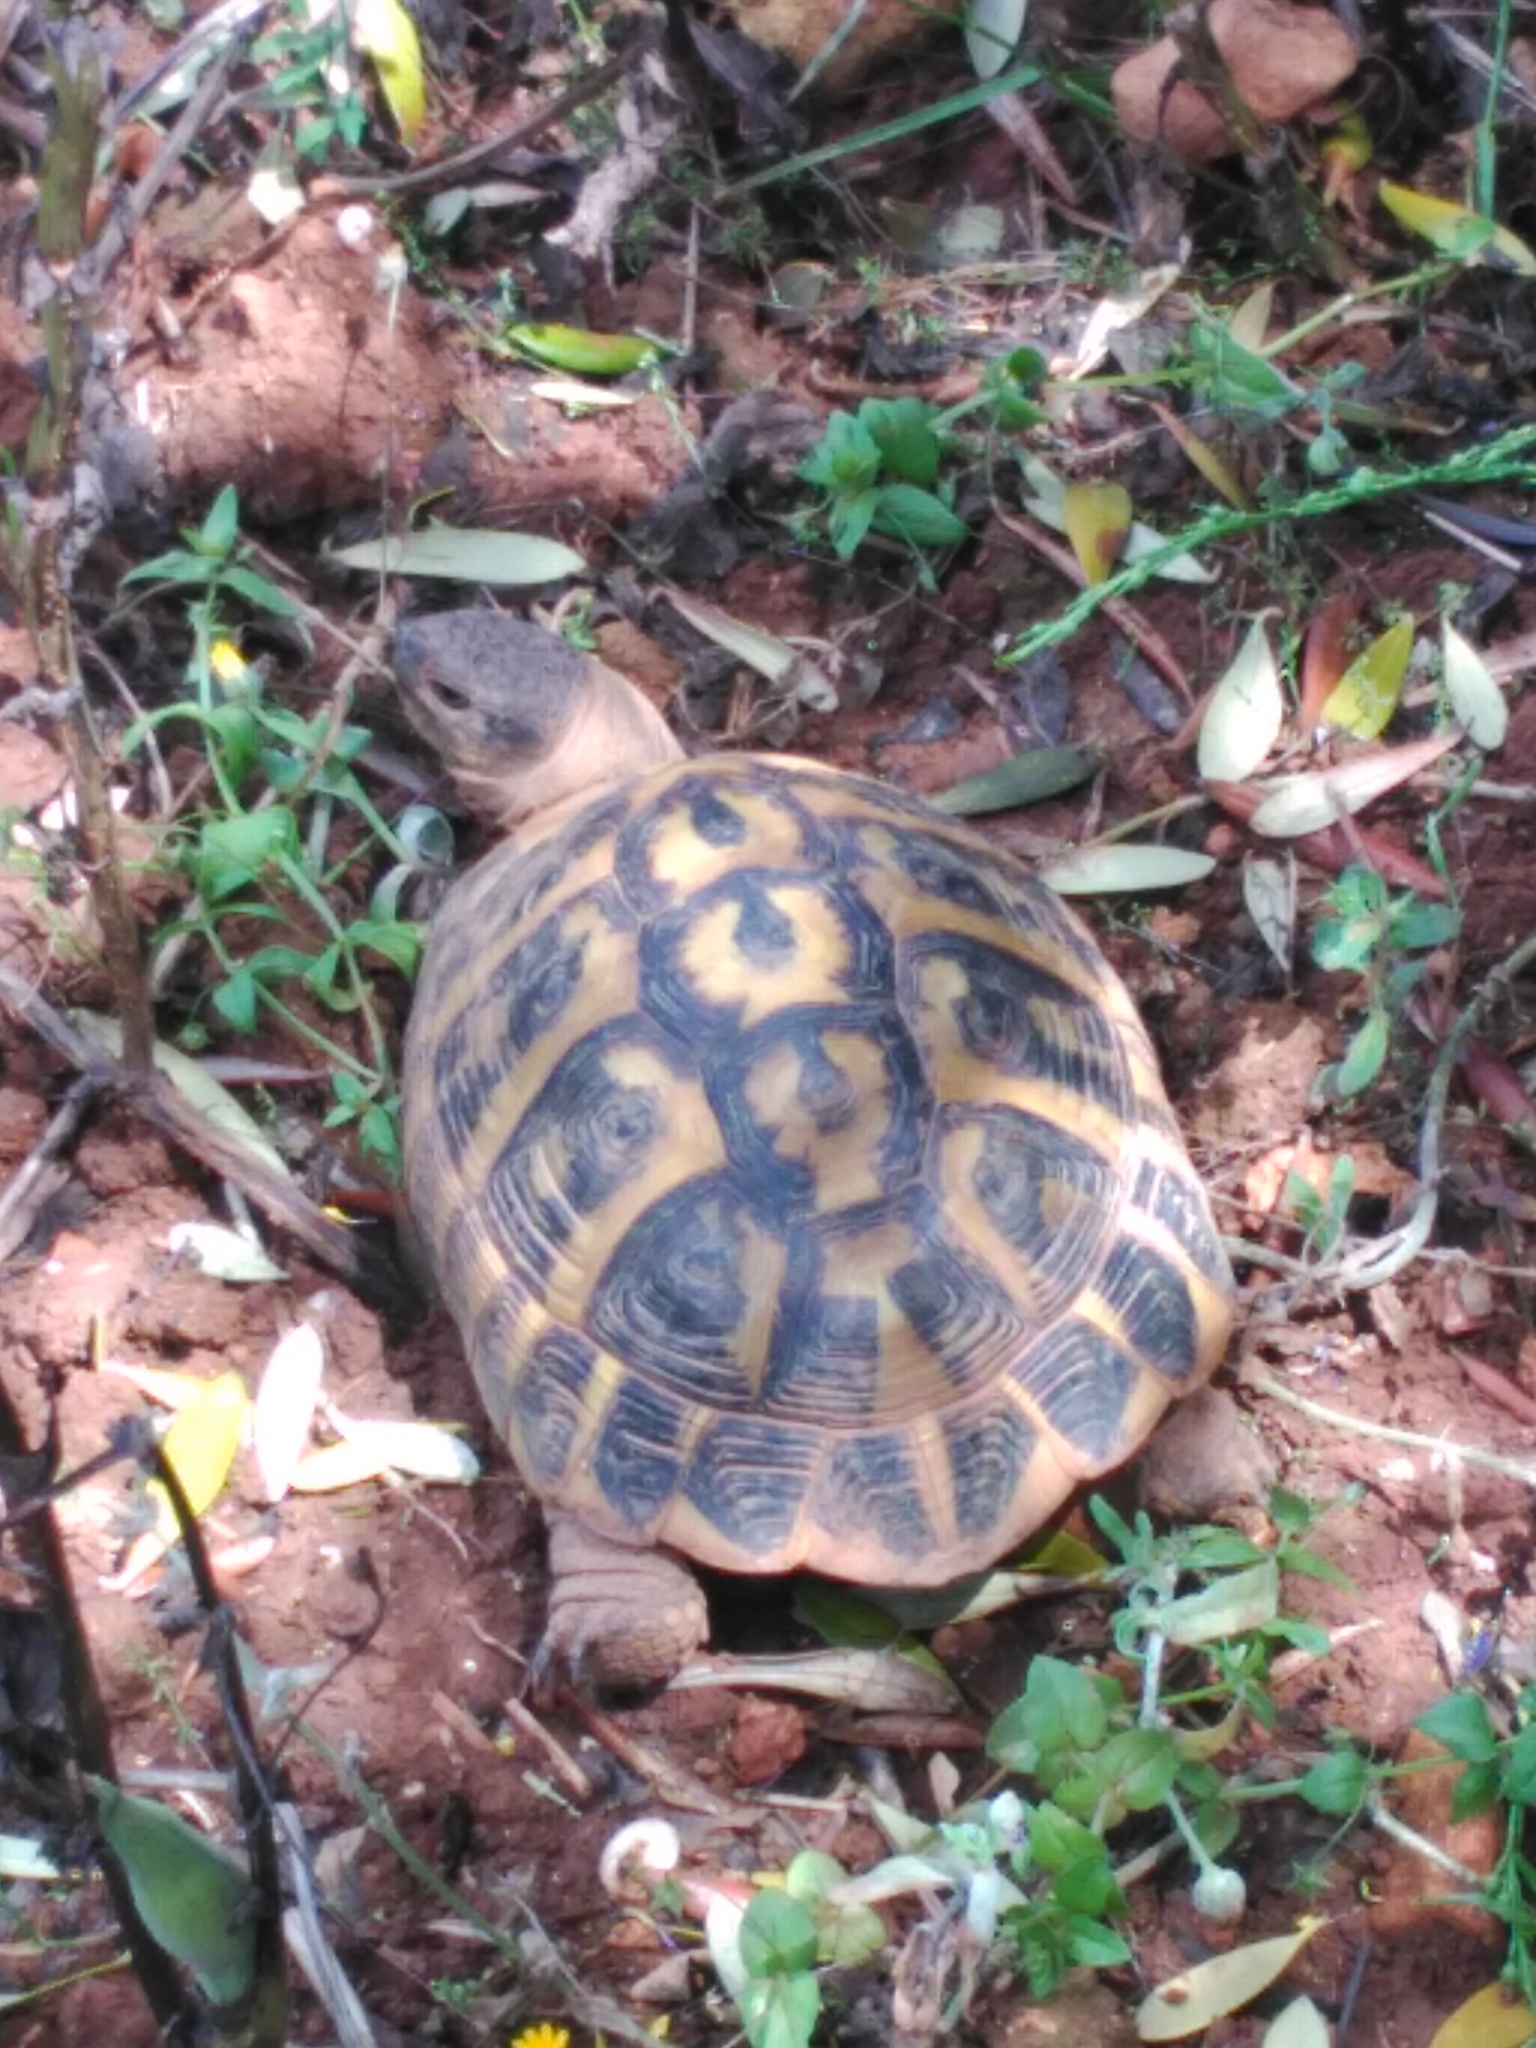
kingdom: Animalia
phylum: Chordata
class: Testudines
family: Testudinidae
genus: Testudo
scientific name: Testudo hermanni
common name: Hermann's tortoise
